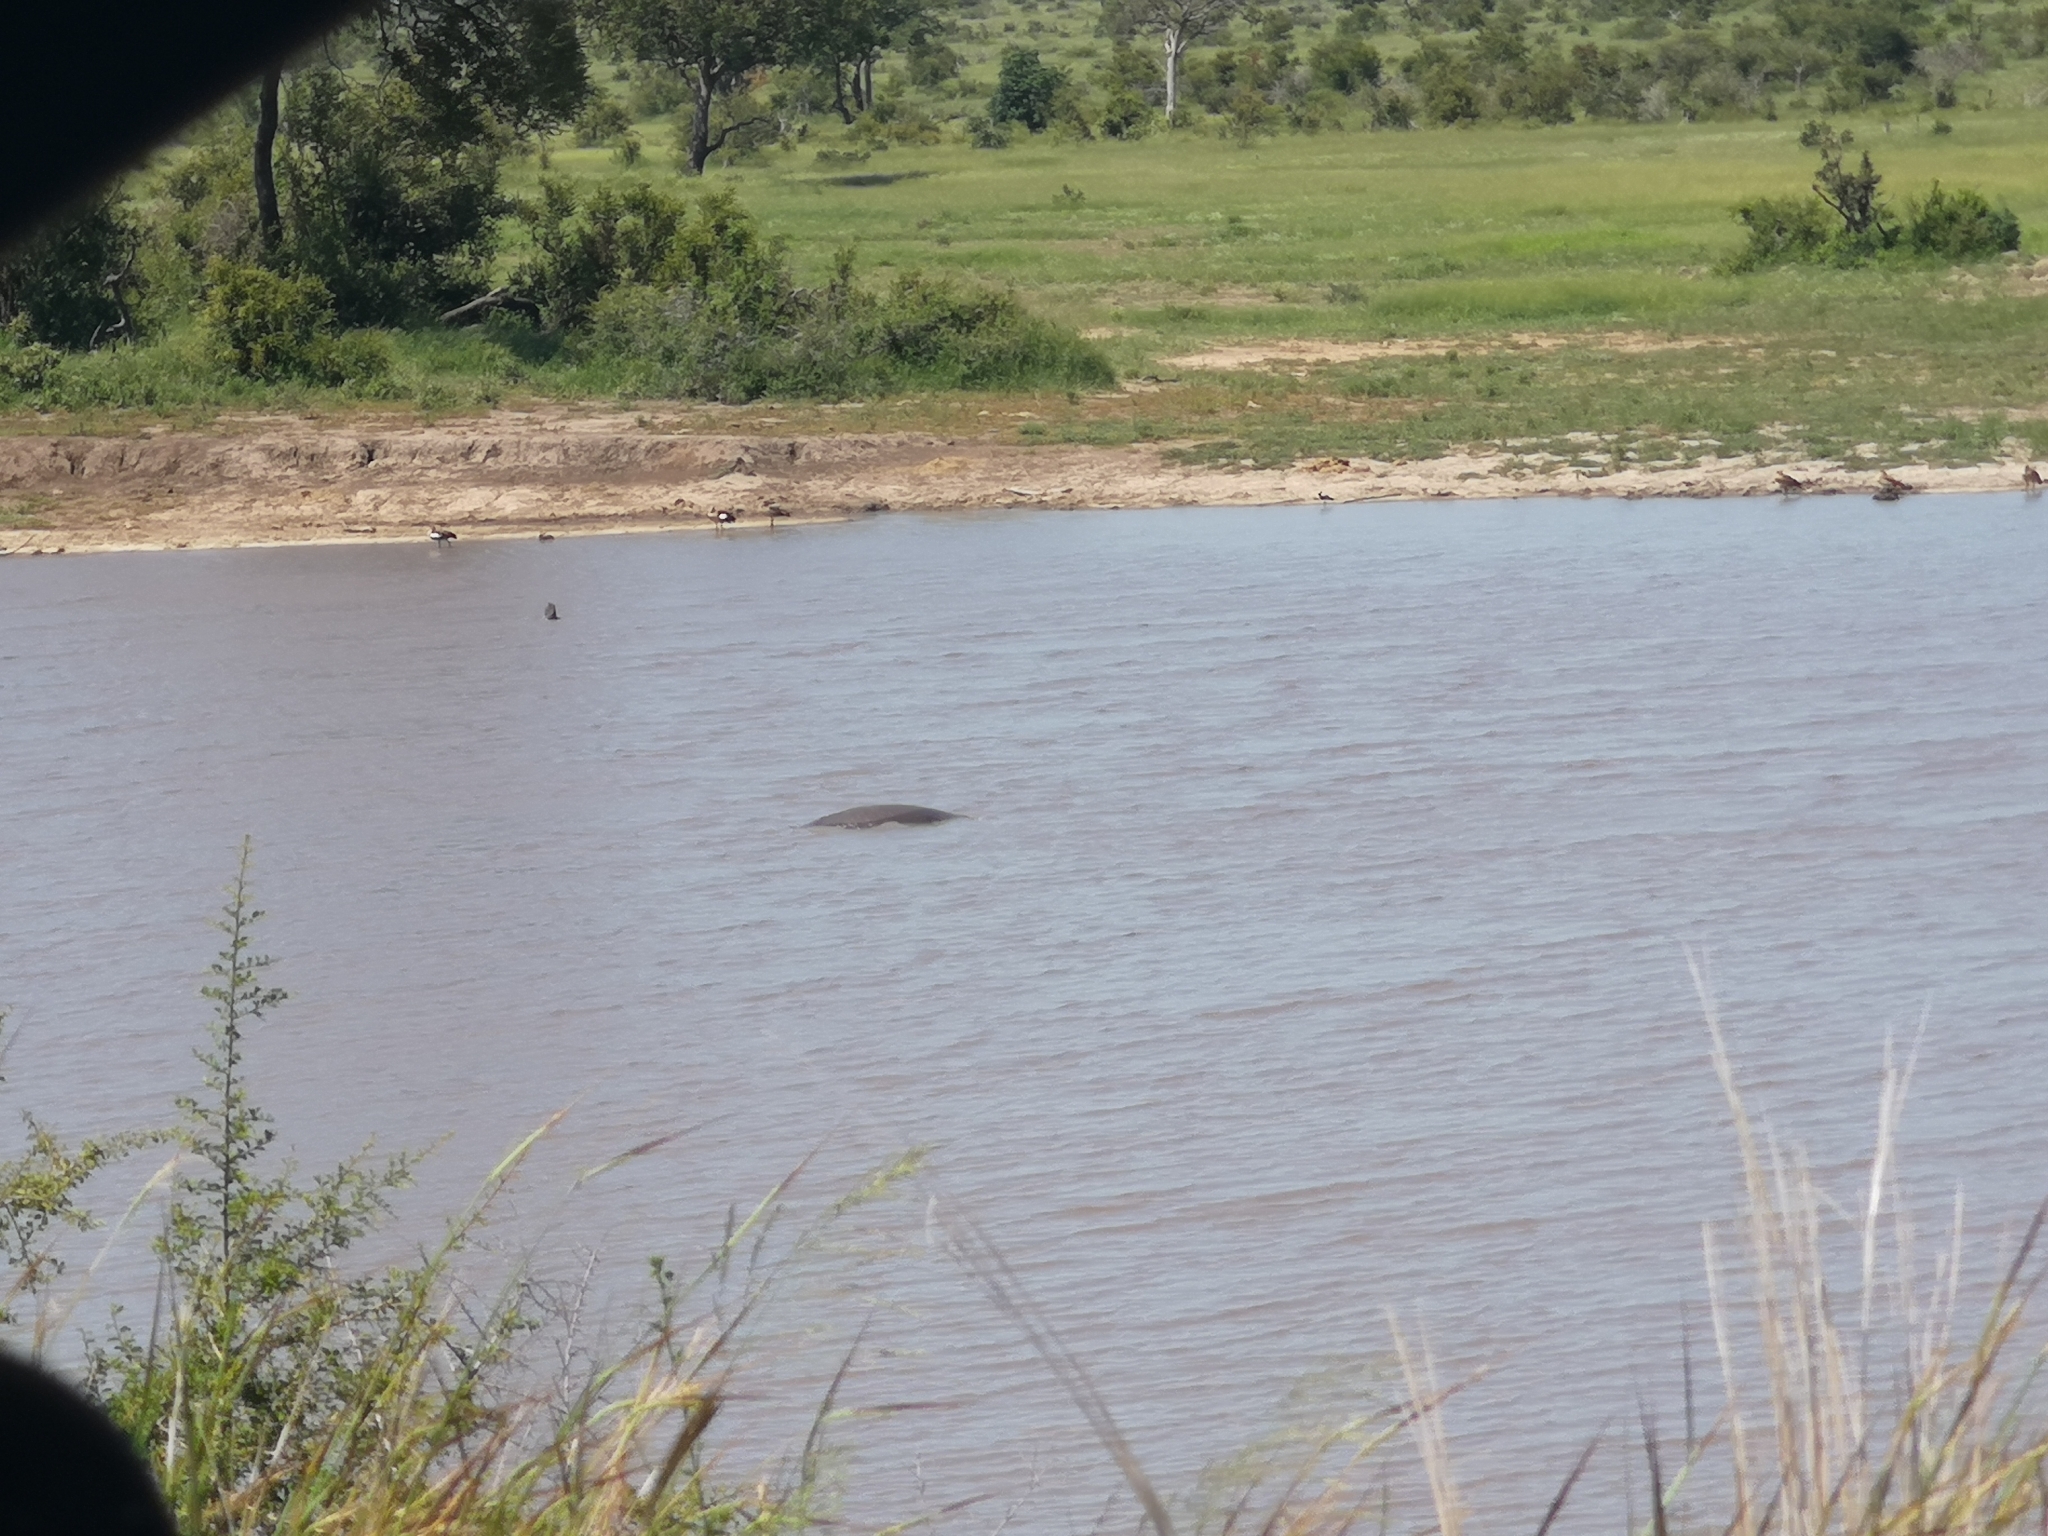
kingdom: Animalia
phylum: Chordata
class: Mammalia
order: Artiodactyla
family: Hippopotamidae
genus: Hippopotamus
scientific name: Hippopotamus amphibius
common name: Common hippopotamus
